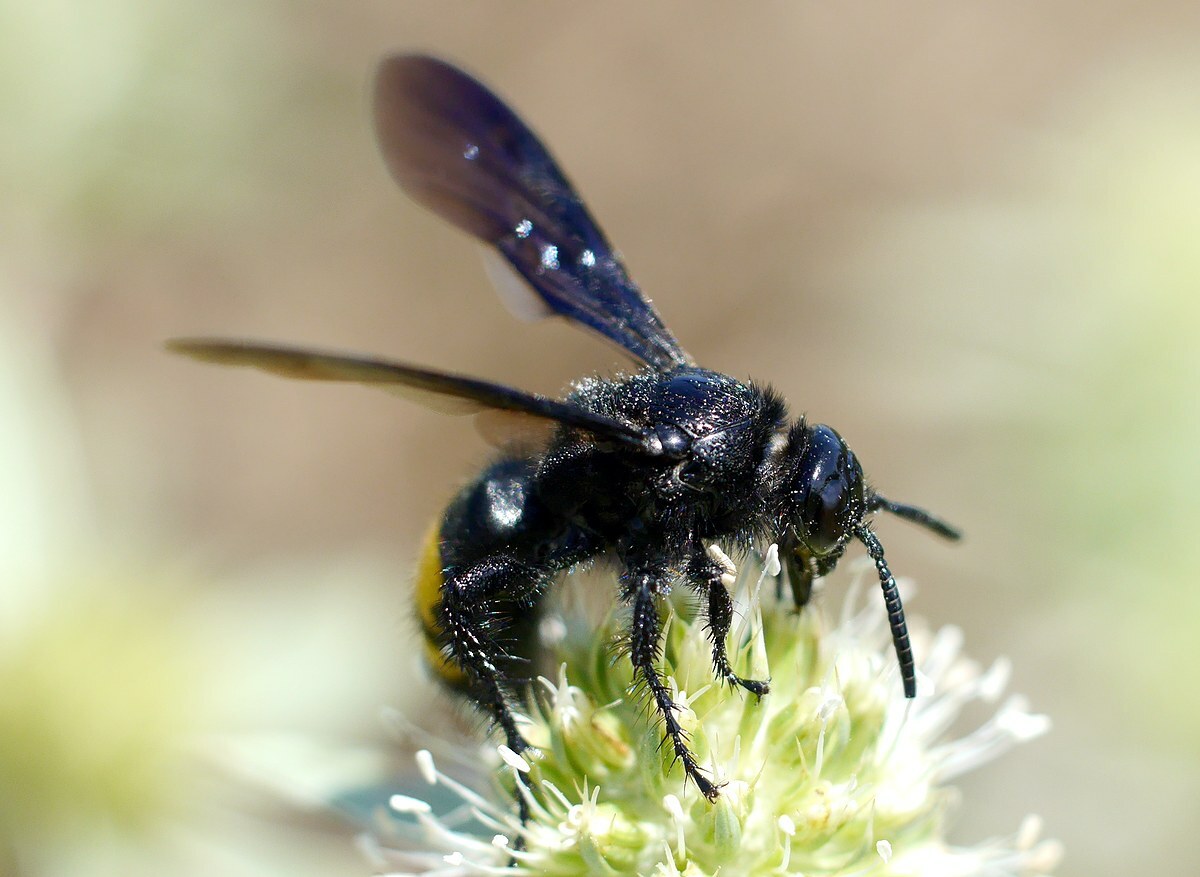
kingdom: Animalia
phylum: Arthropoda
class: Insecta
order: Hymenoptera
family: Scoliidae
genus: Scolia
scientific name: Scolia hirta
